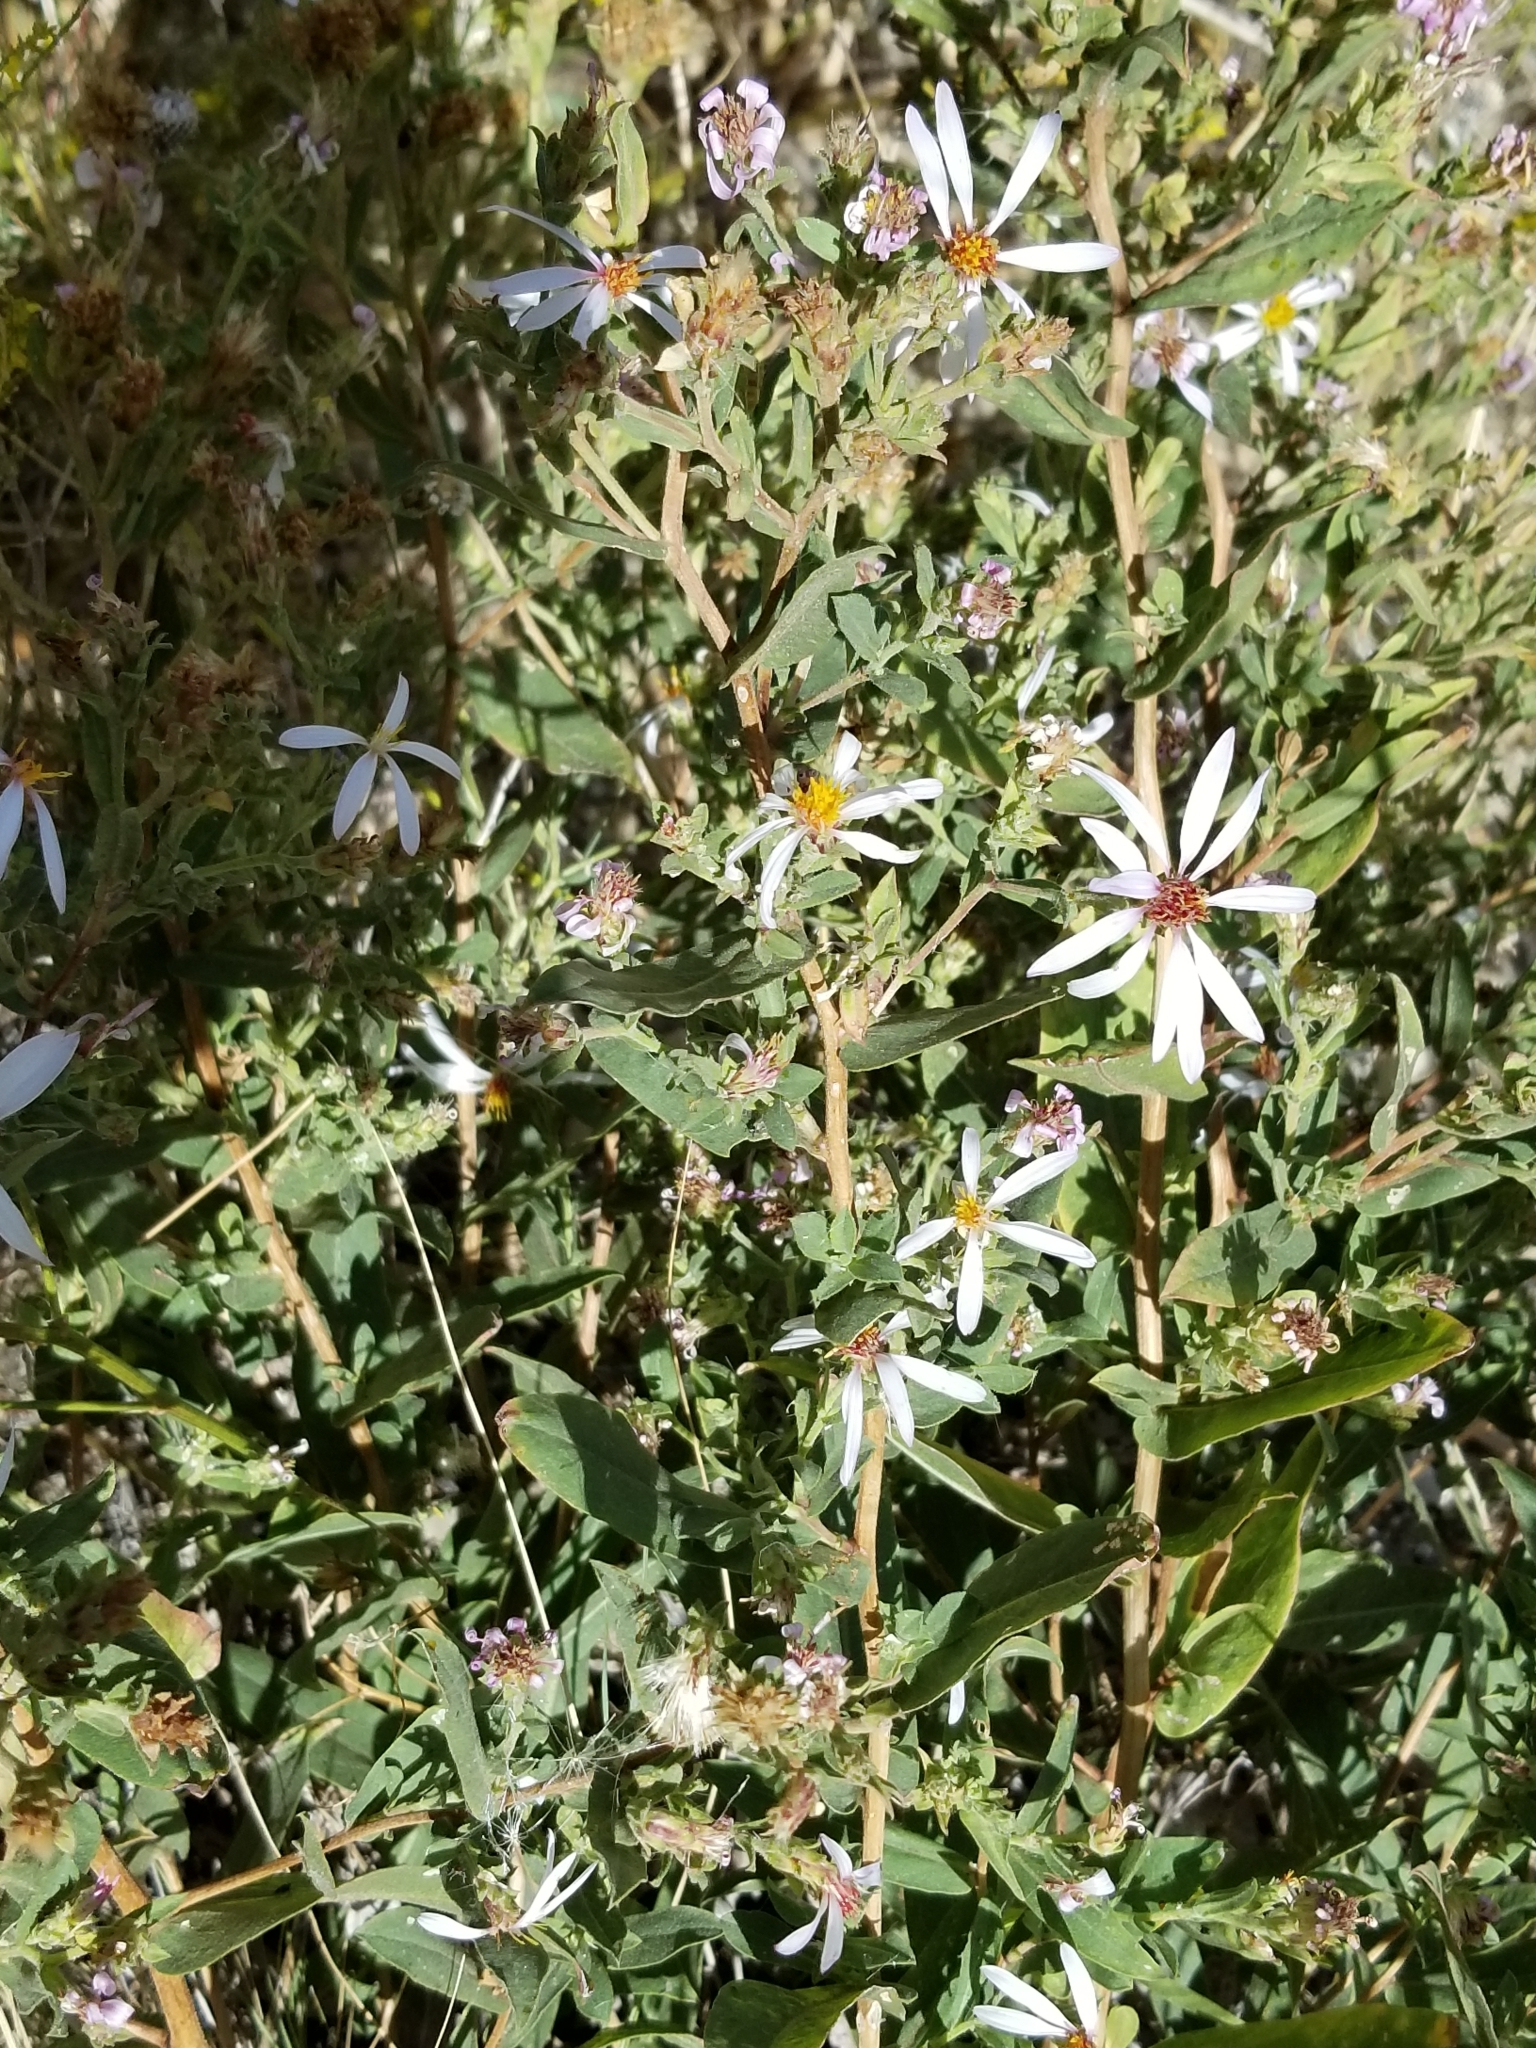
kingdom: Plantae
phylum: Tracheophyta
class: Magnoliopsida
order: Asterales
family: Asteraceae
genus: Eurybia
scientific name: Eurybia glauca
